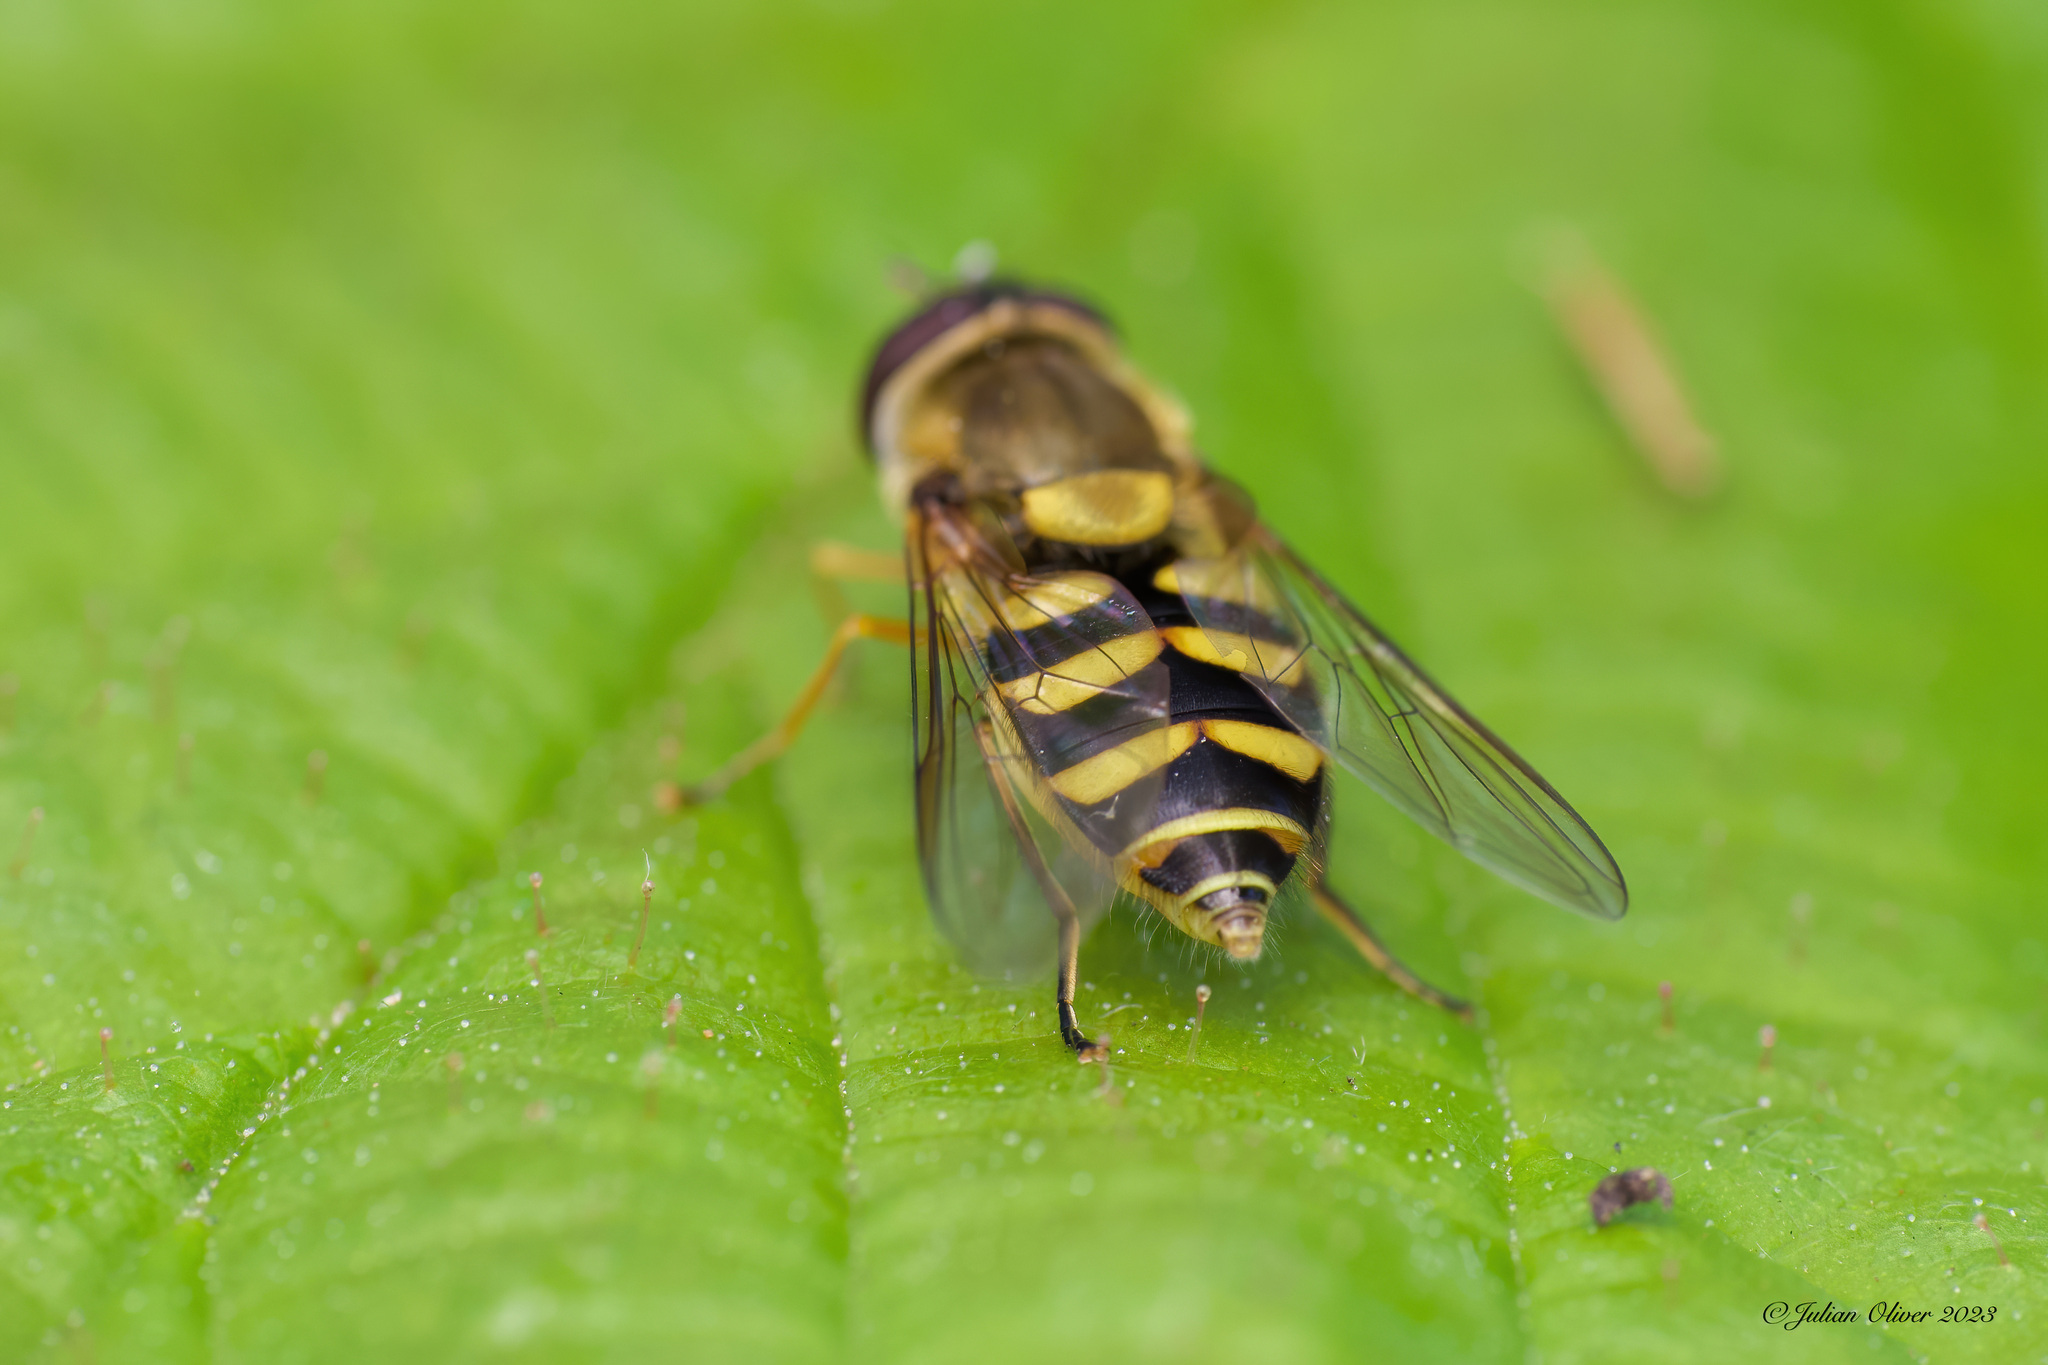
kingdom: Animalia
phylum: Arthropoda
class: Insecta
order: Diptera
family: Syrphidae
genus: Syrphus
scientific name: Syrphus
